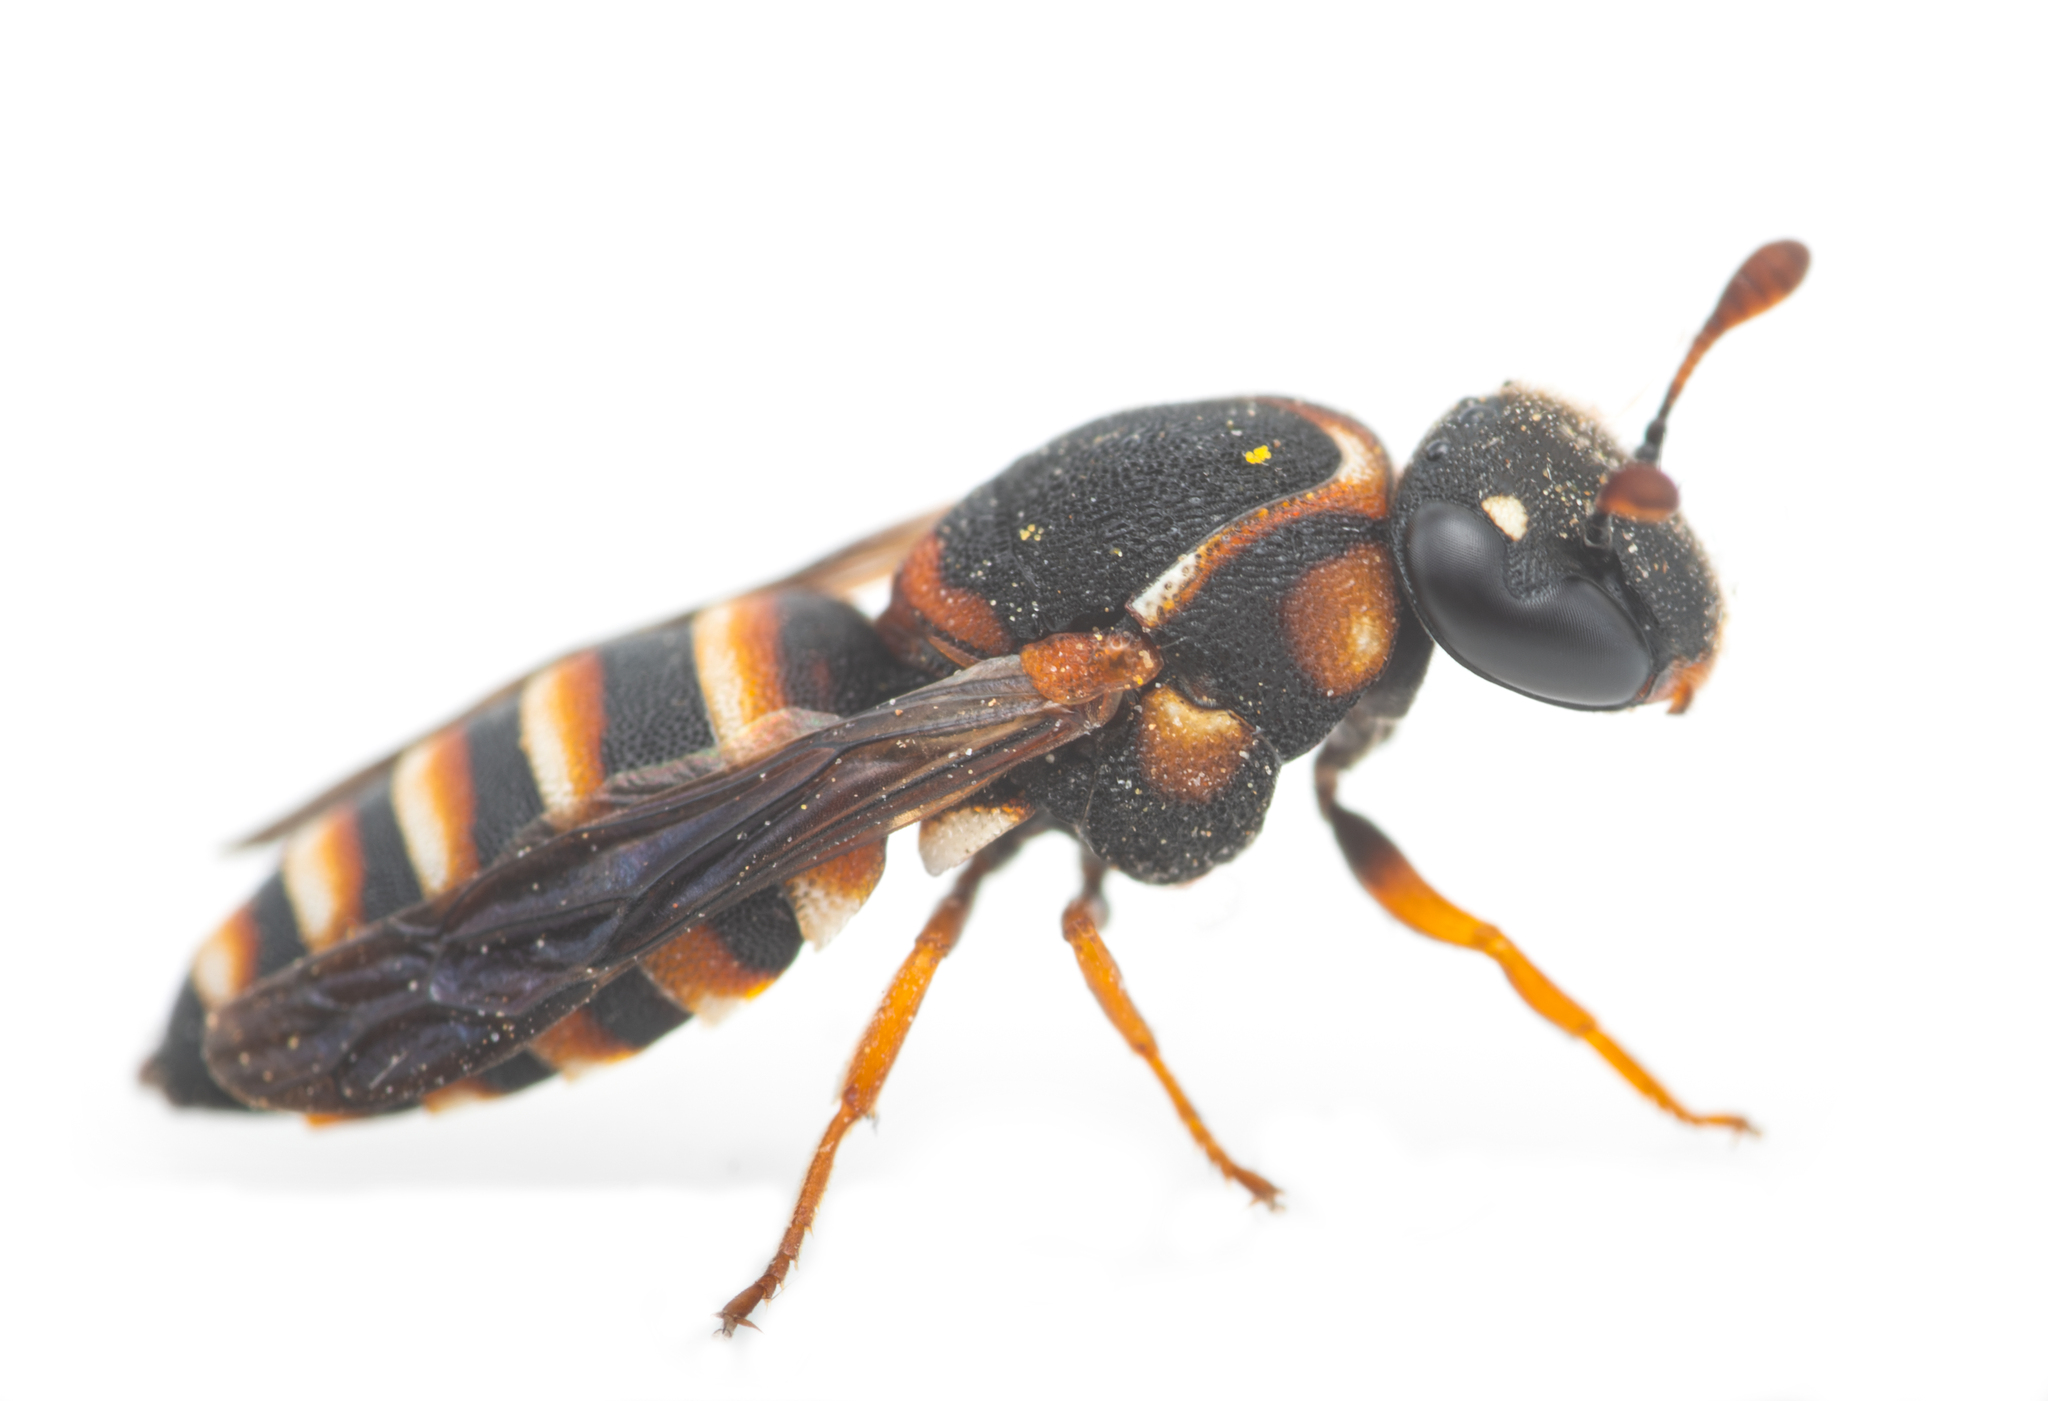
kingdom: Animalia
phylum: Arthropoda
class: Insecta
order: Hymenoptera
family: Masaridae
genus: Celonites
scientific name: Celonites mayeti
